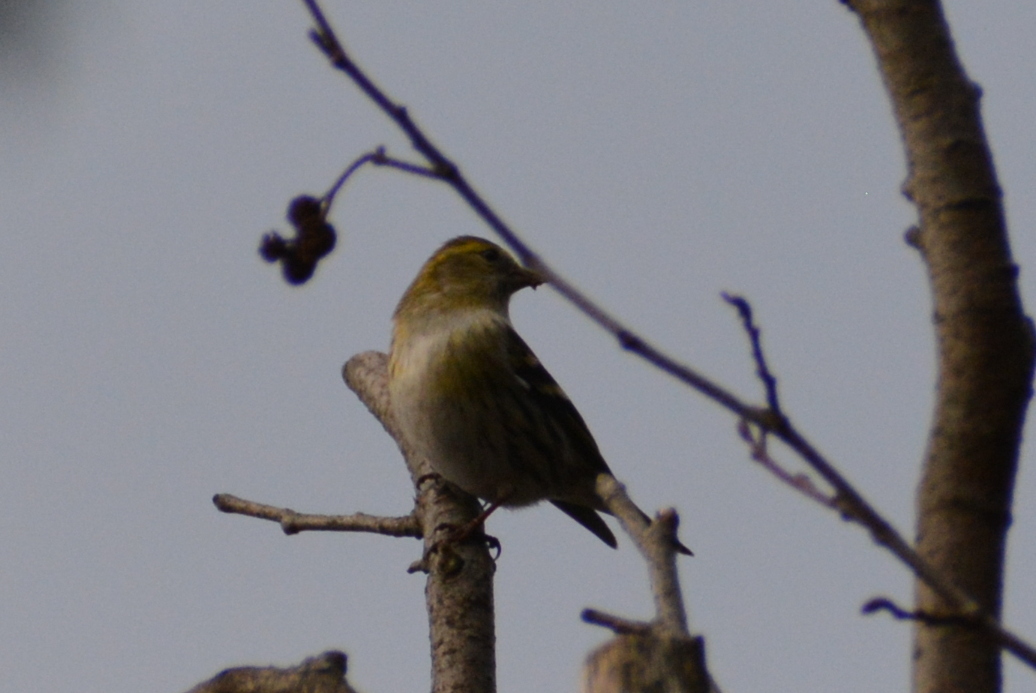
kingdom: Animalia
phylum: Chordata
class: Aves
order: Passeriformes
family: Fringillidae
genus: Spinus
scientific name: Spinus spinus
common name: Eurasian siskin
